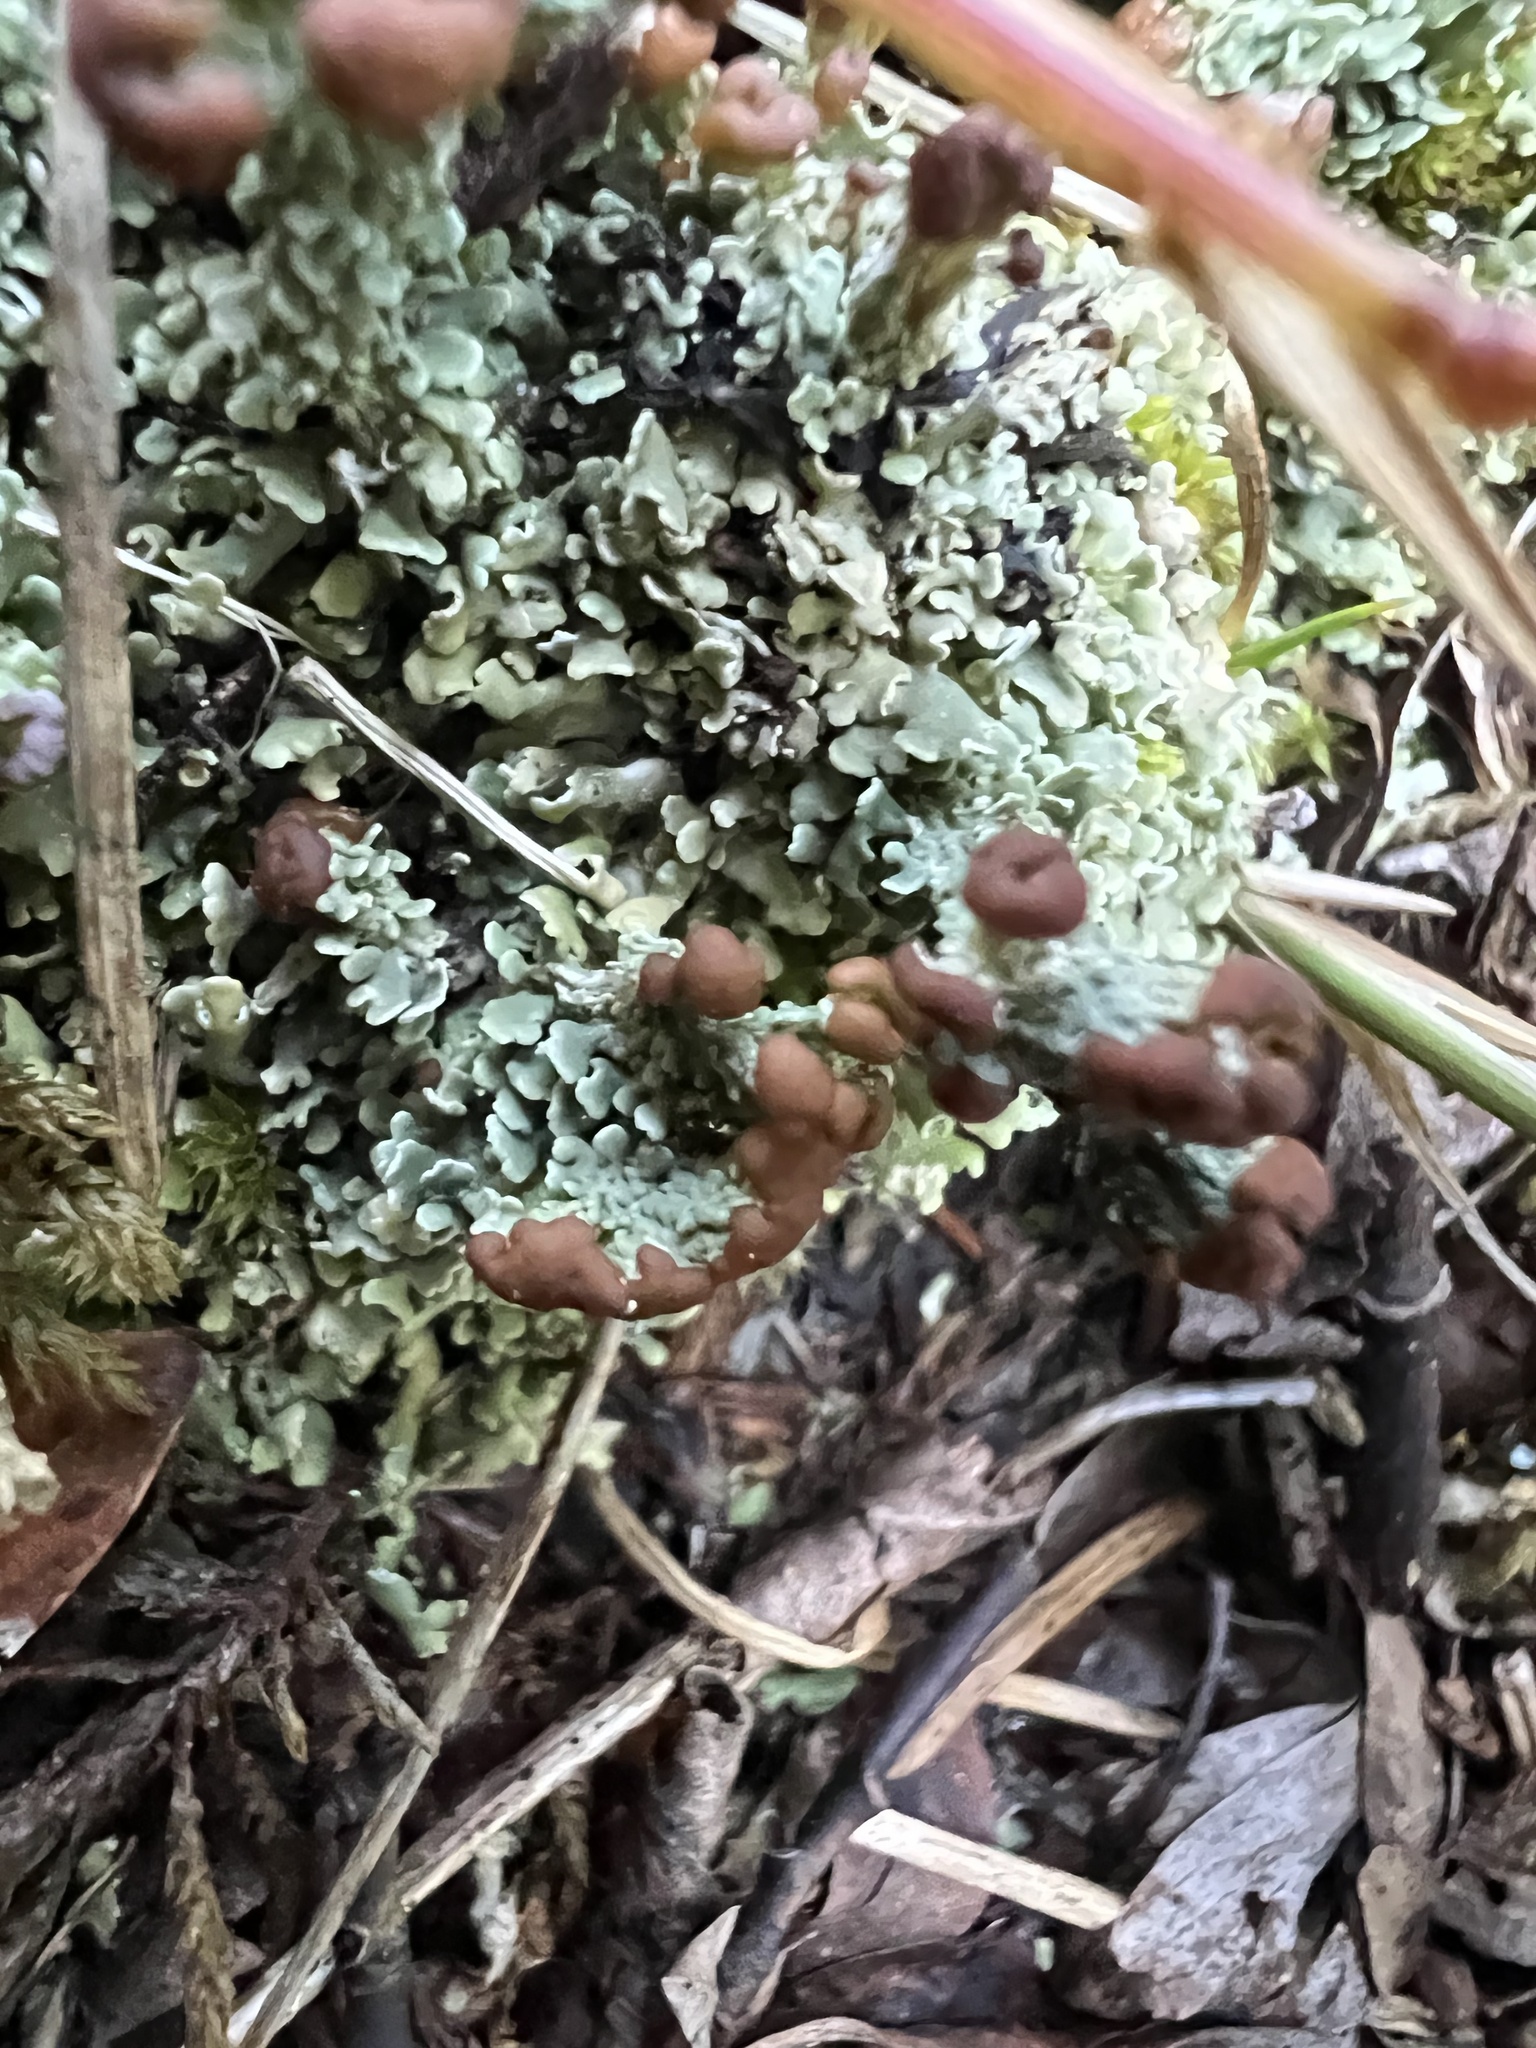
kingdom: Fungi
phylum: Ascomycota
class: Lecanoromycetes
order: Lecanorales
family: Cladoniaceae
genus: Cladonia
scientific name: Cladonia peziziformis
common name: Cup lichen
